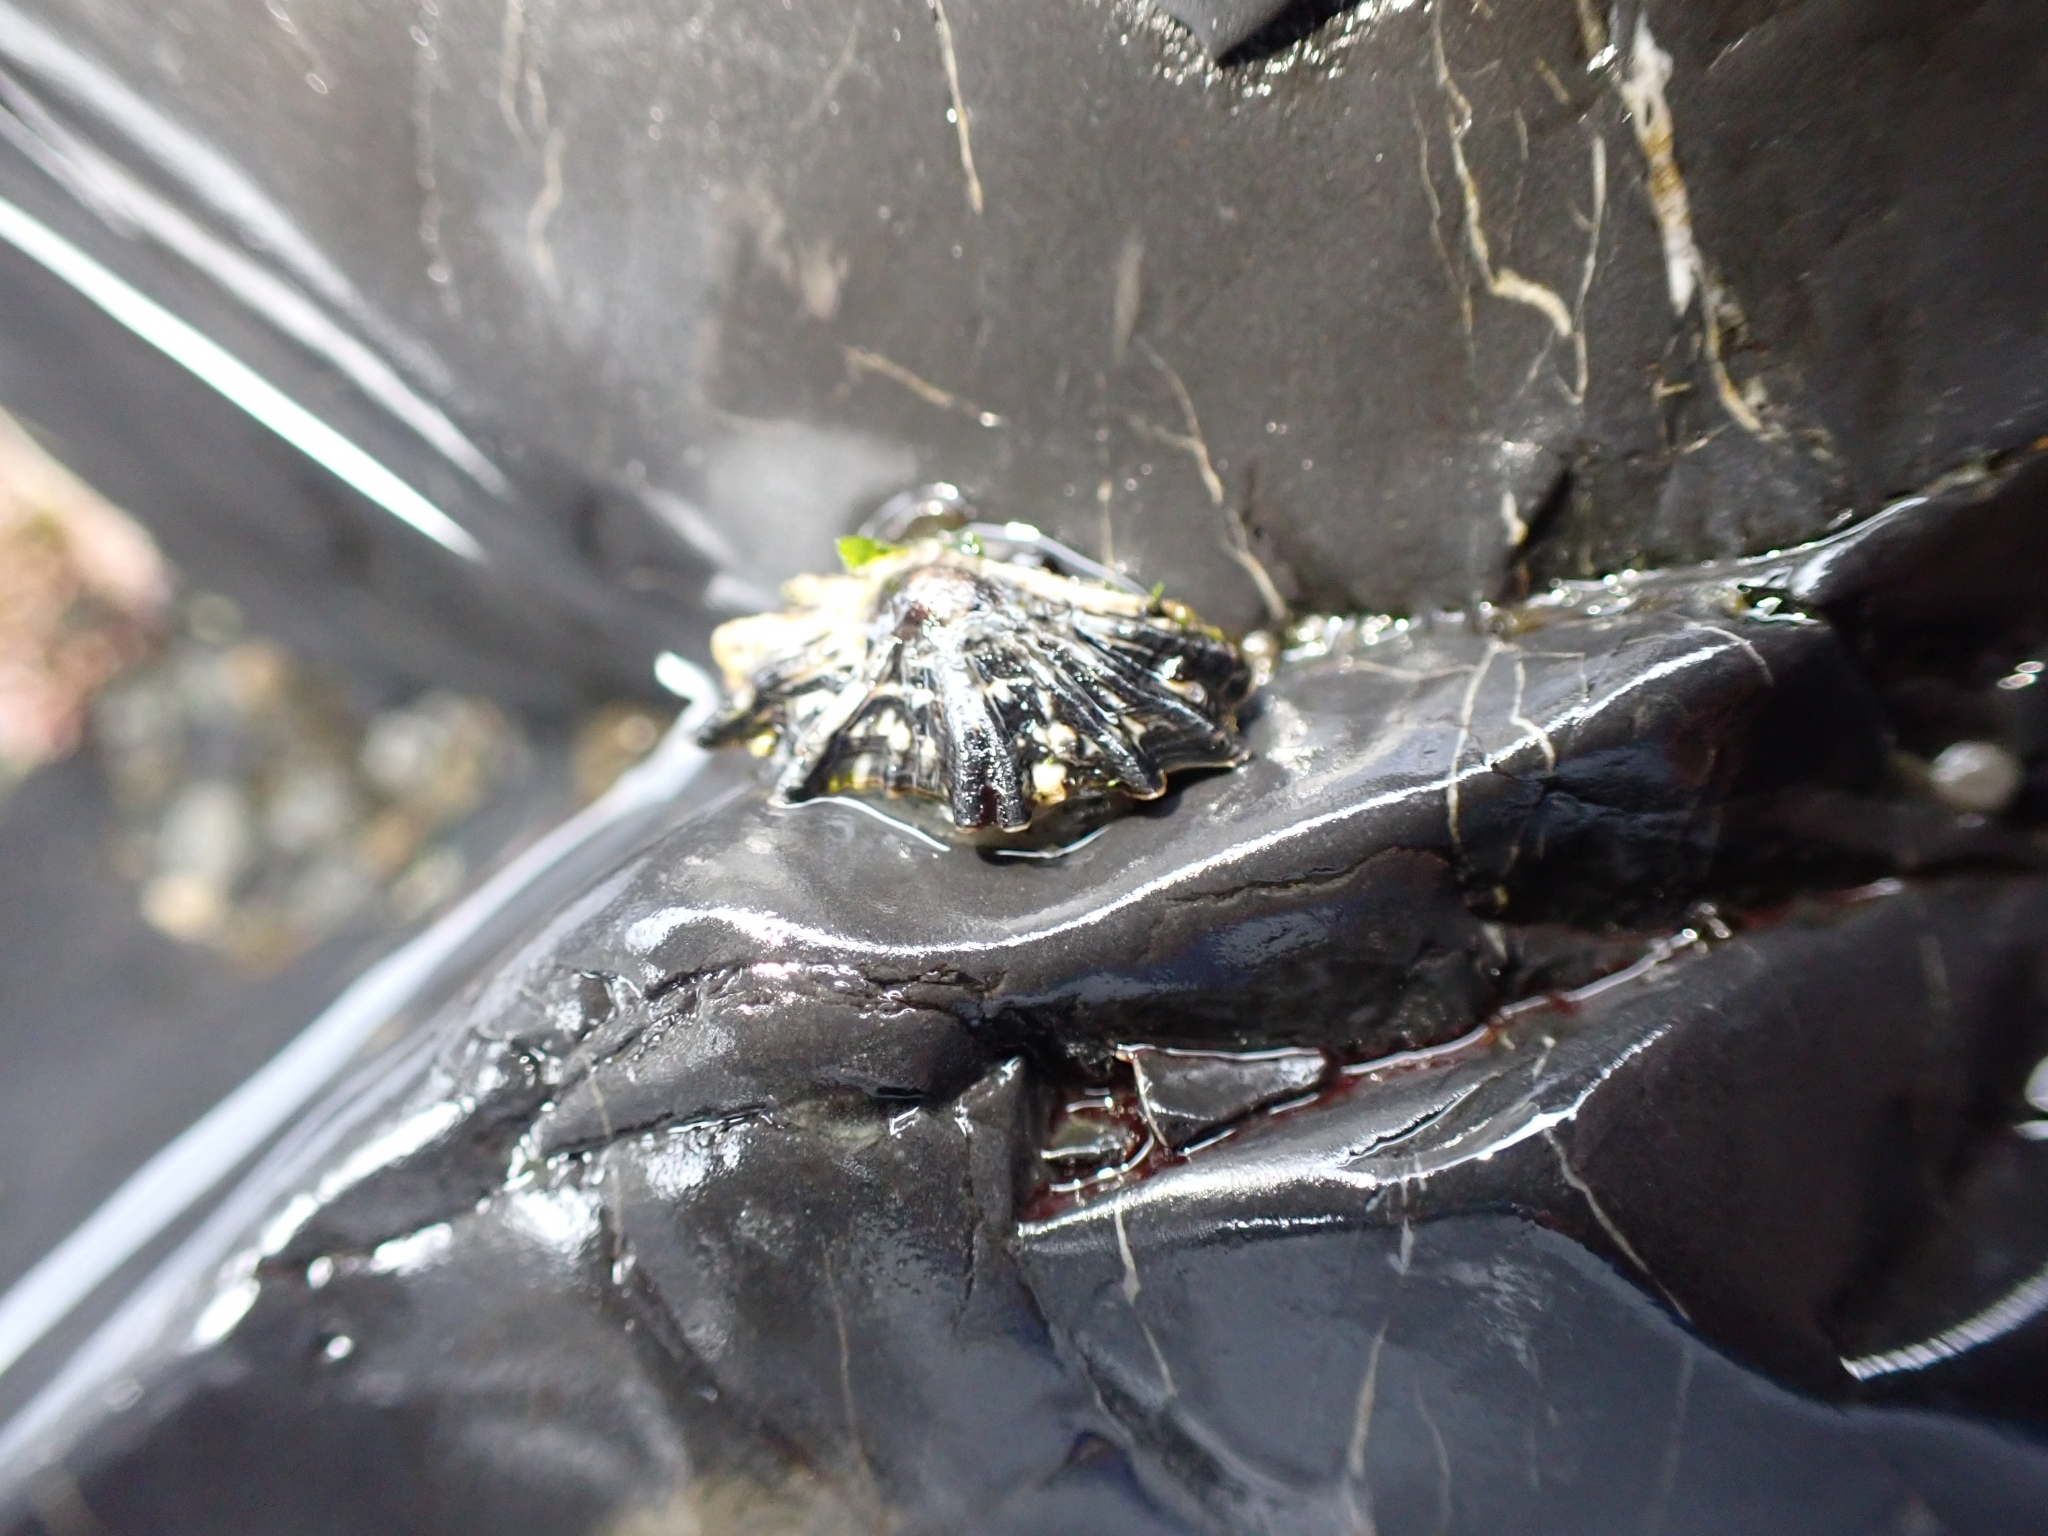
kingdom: Animalia
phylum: Mollusca
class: Gastropoda
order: Siphonariida
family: Siphonariidae
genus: Siphonaria
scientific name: Siphonaria australis
